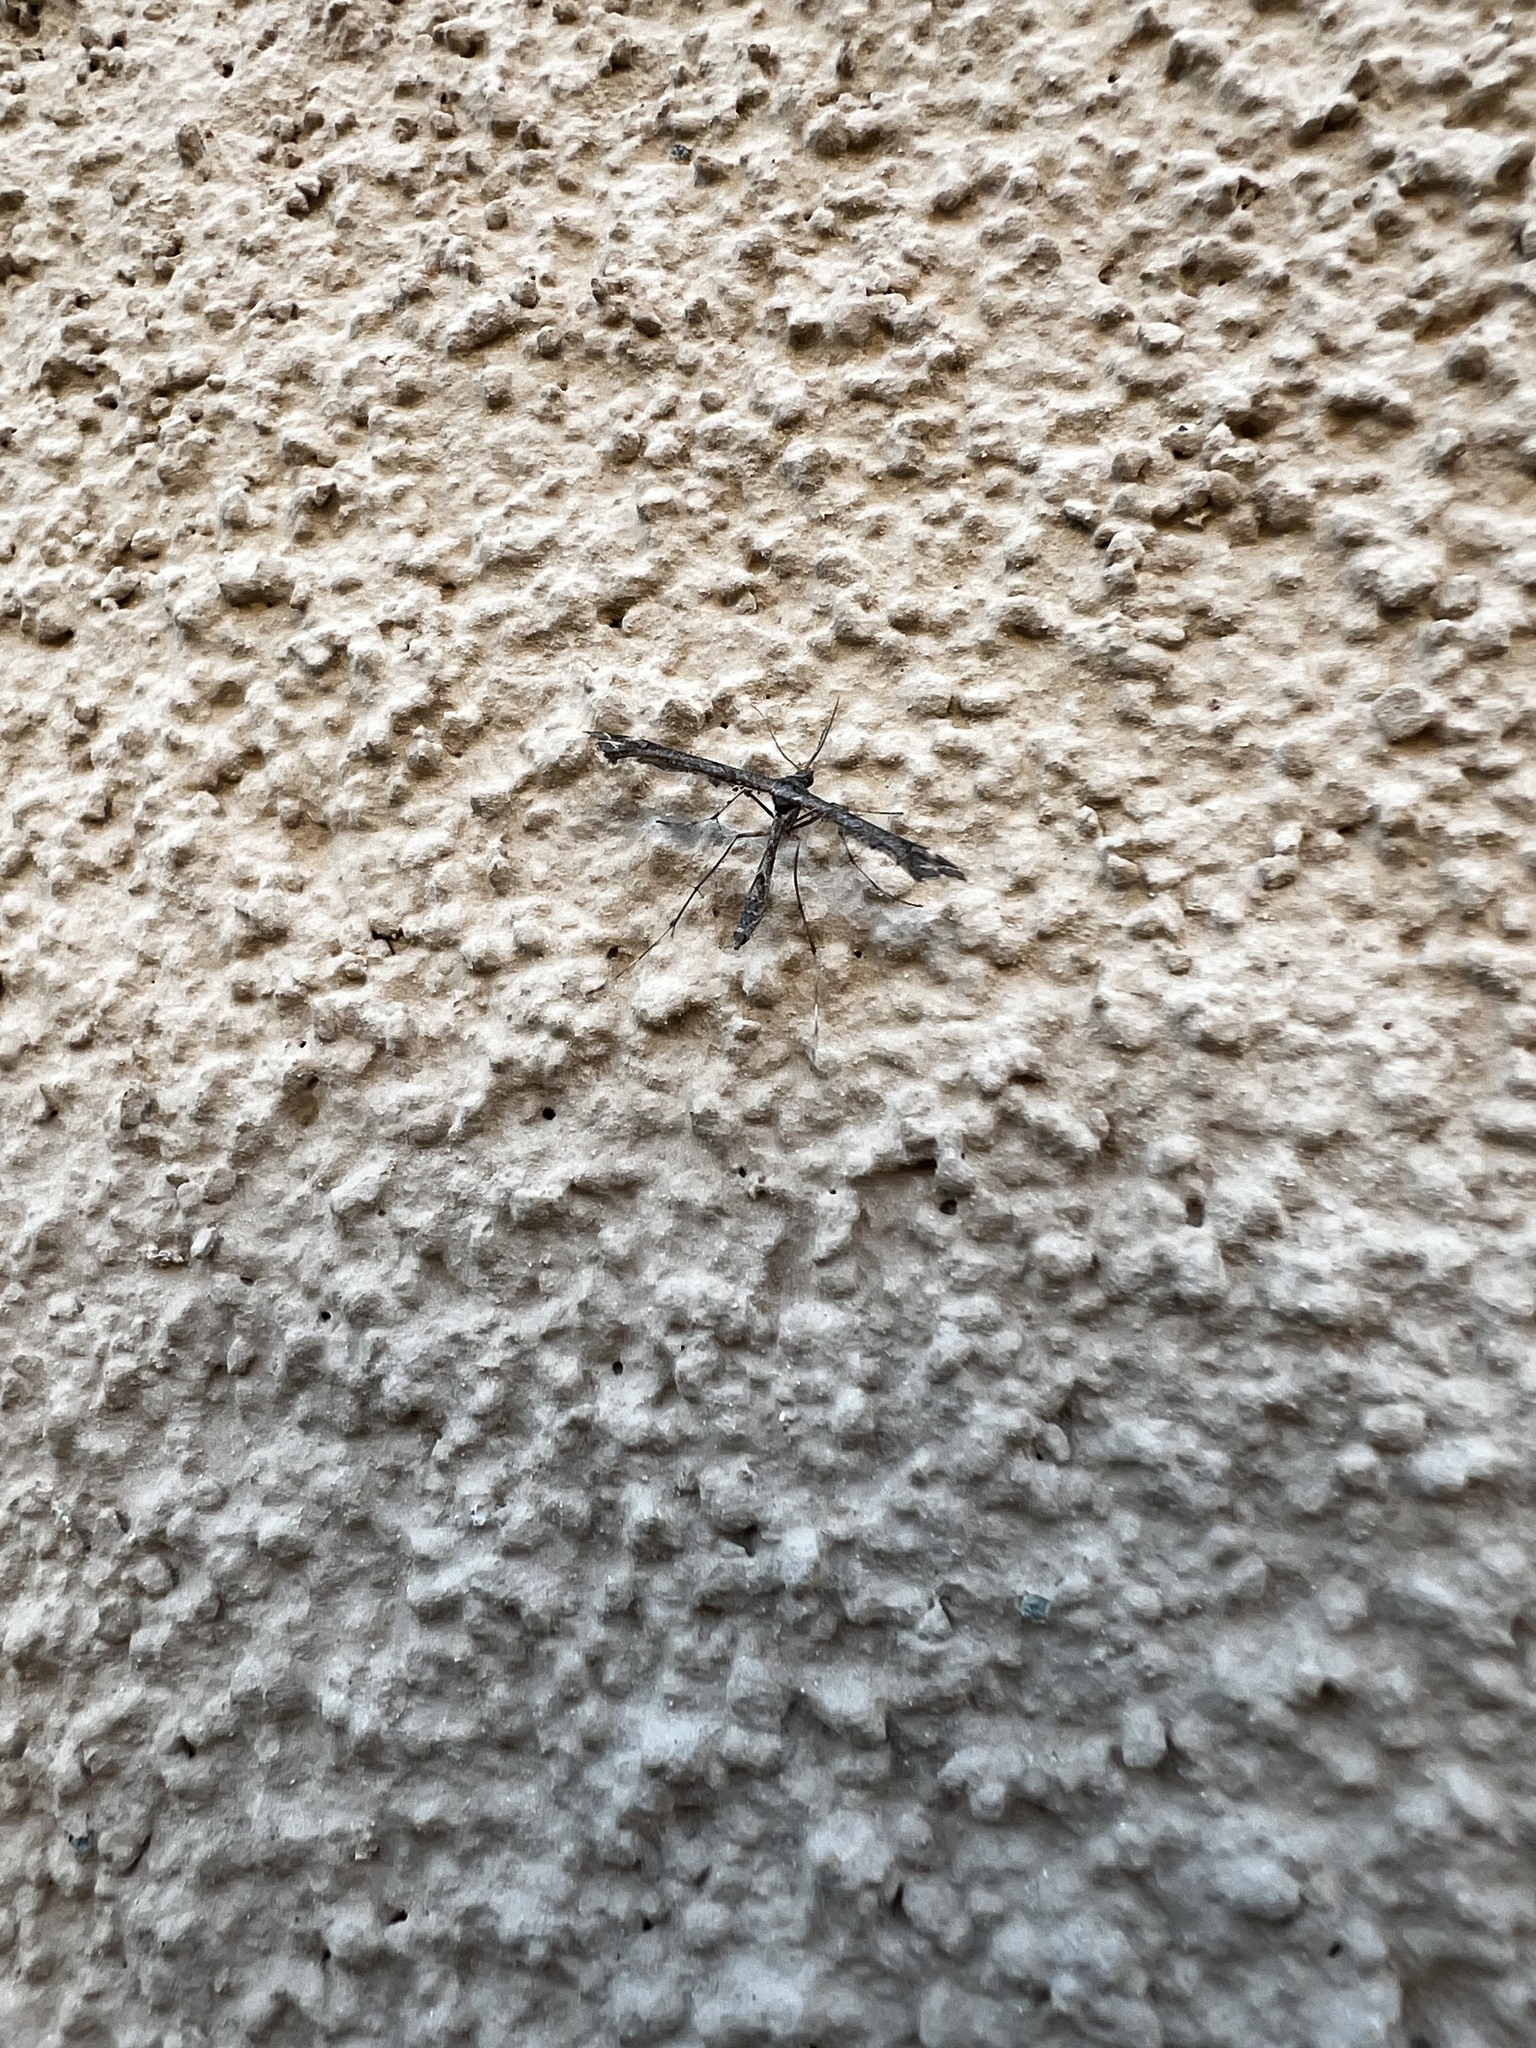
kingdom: Animalia
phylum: Arthropoda
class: Insecta
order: Lepidoptera
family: Pterophoridae
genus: Anstenoptilia
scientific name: Anstenoptilia marmarodactyla
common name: Moth
